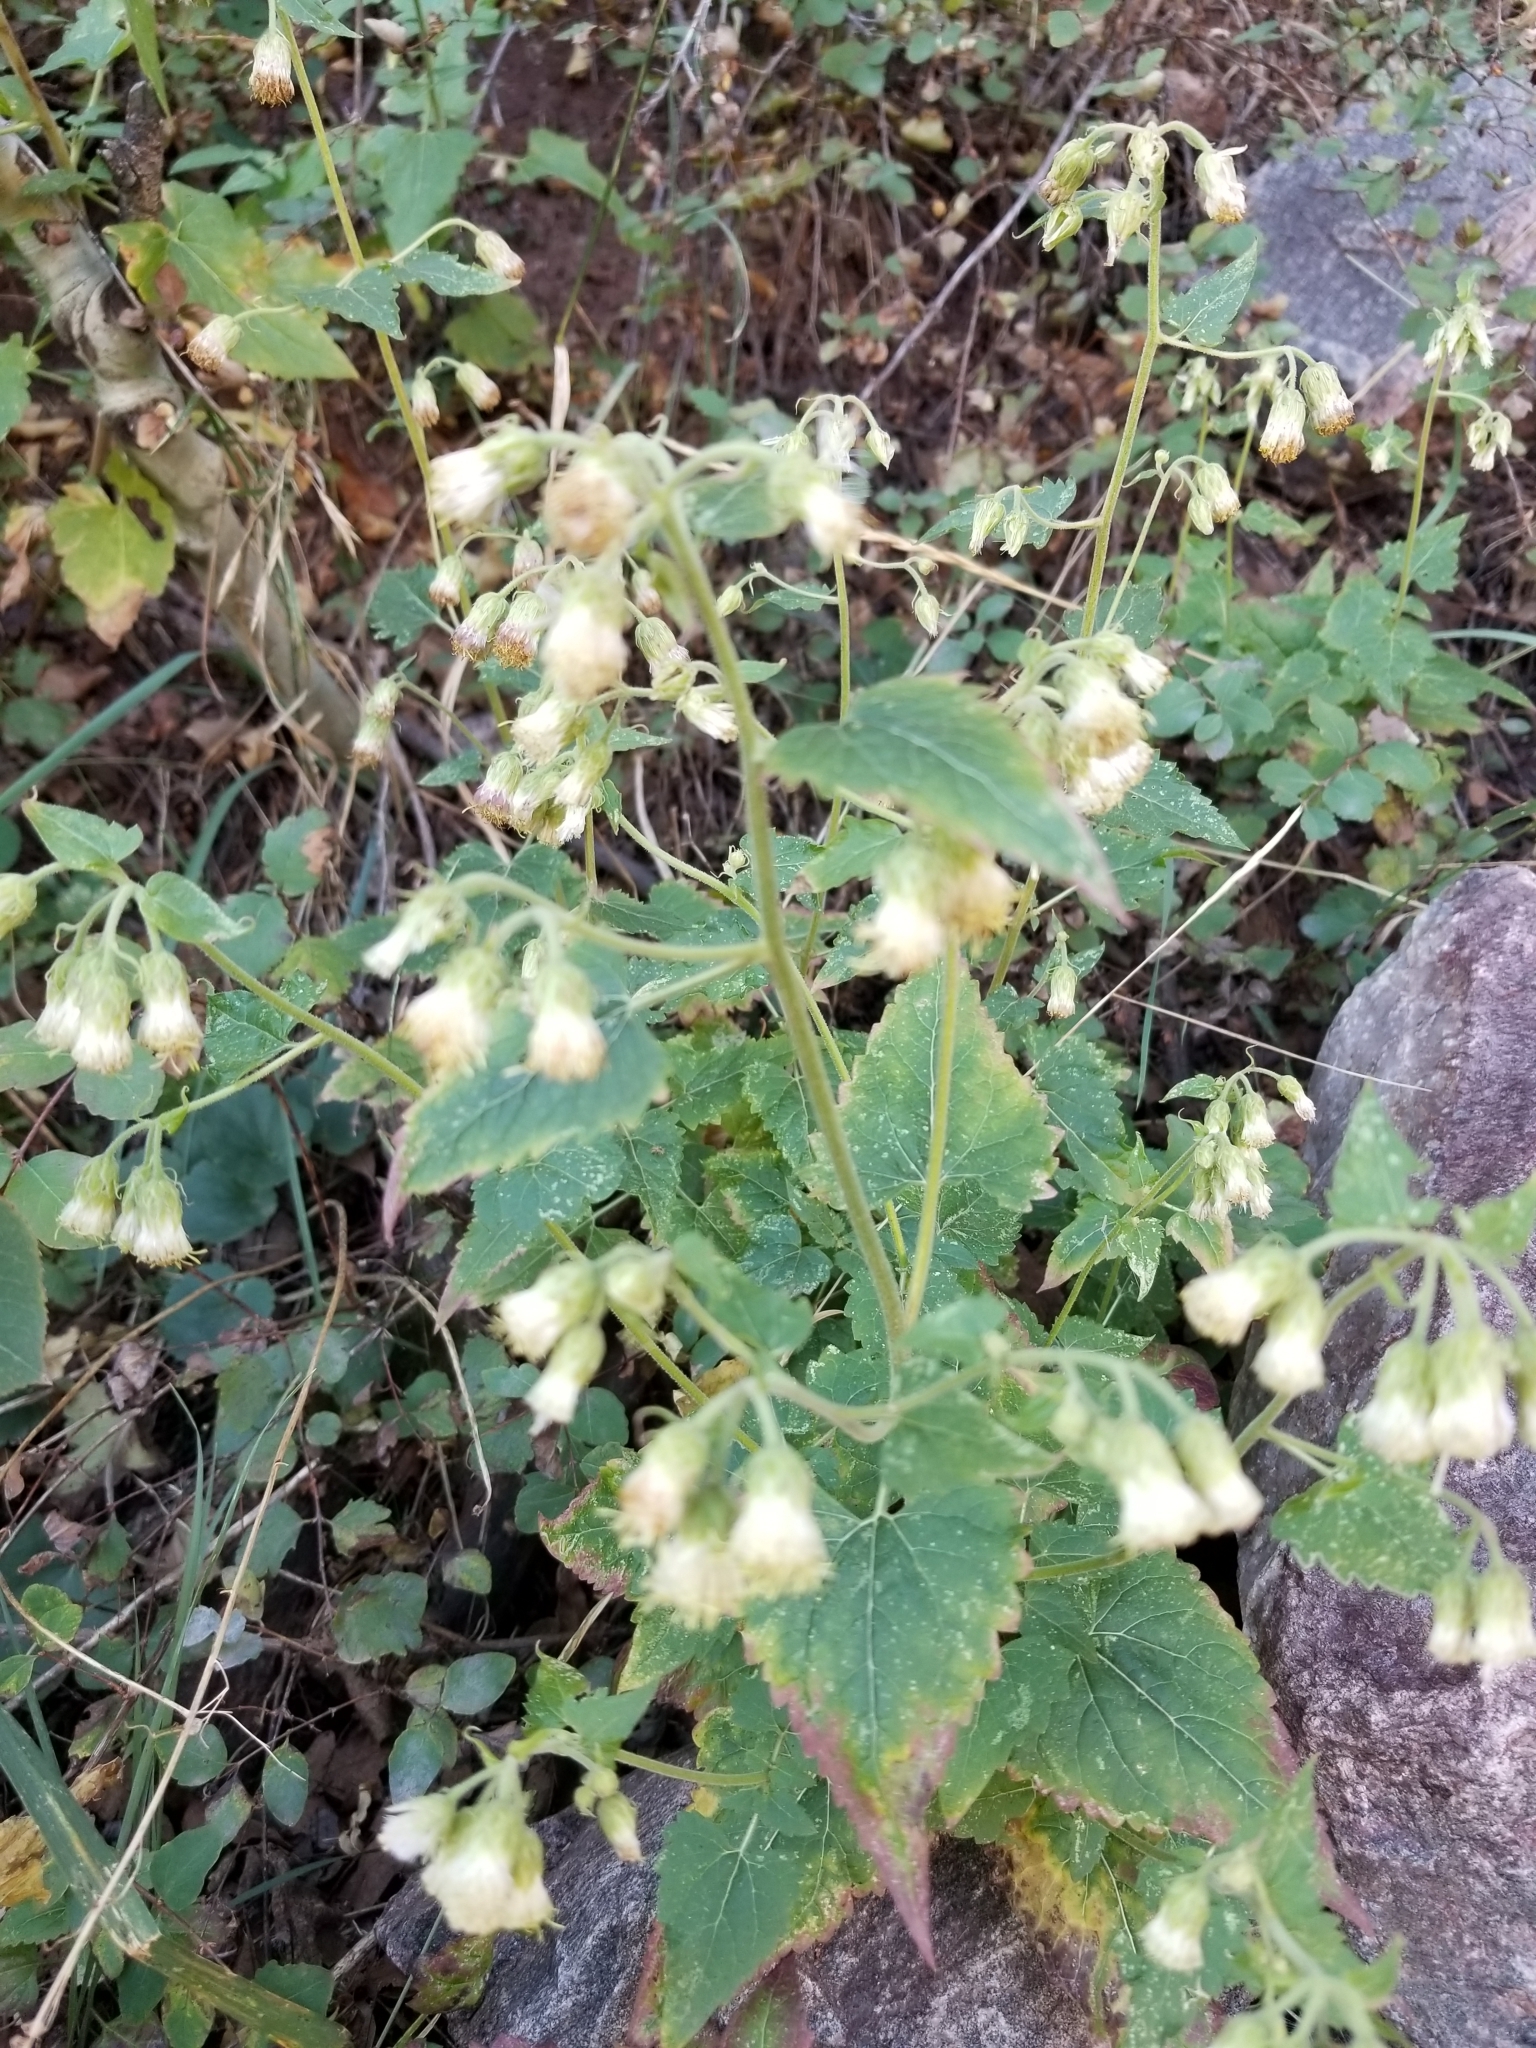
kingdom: Plantae
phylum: Tracheophyta
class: Magnoliopsida
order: Asterales
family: Asteraceae
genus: Brickellia
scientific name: Brickellia grandiflora
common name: Large-flowered brickellia
